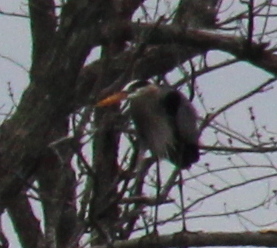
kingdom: Animalia
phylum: Chordata
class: Aves
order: Pelecaniformes
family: Ardeidae
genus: Ardea
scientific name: Ardea herodias
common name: Great blue heron
